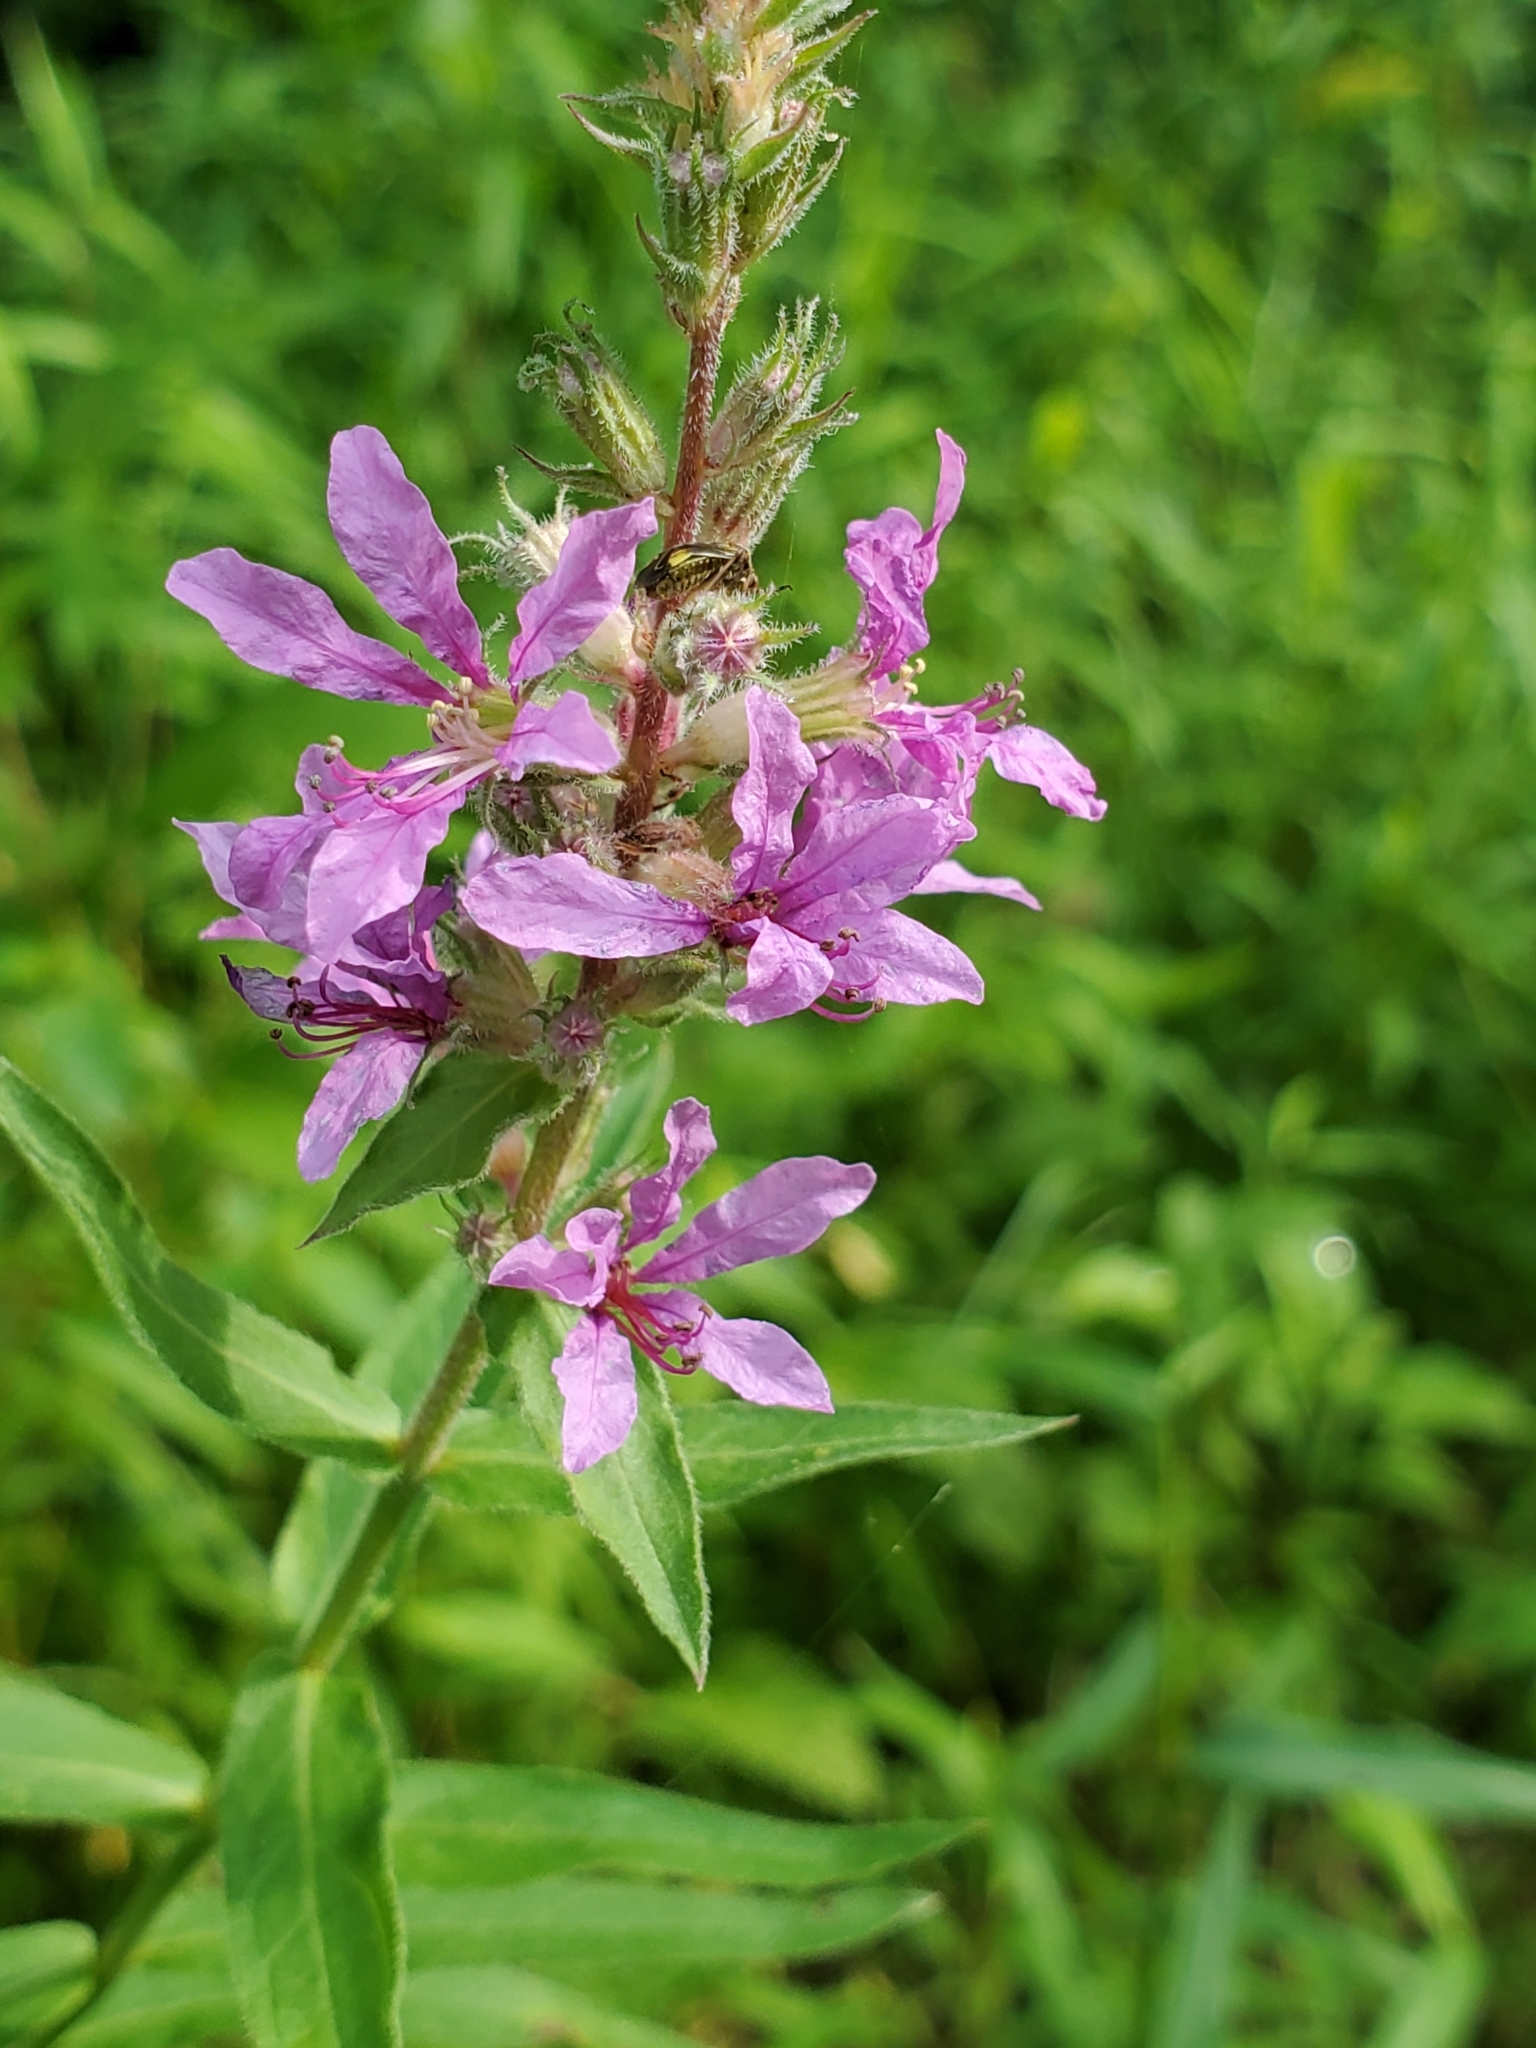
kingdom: Plantae
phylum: Tracheophyta
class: Magnoliopsida
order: Myrtales
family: Lythraceae
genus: Lythrum
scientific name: Lythrum salicaria
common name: Purple loosestrife
